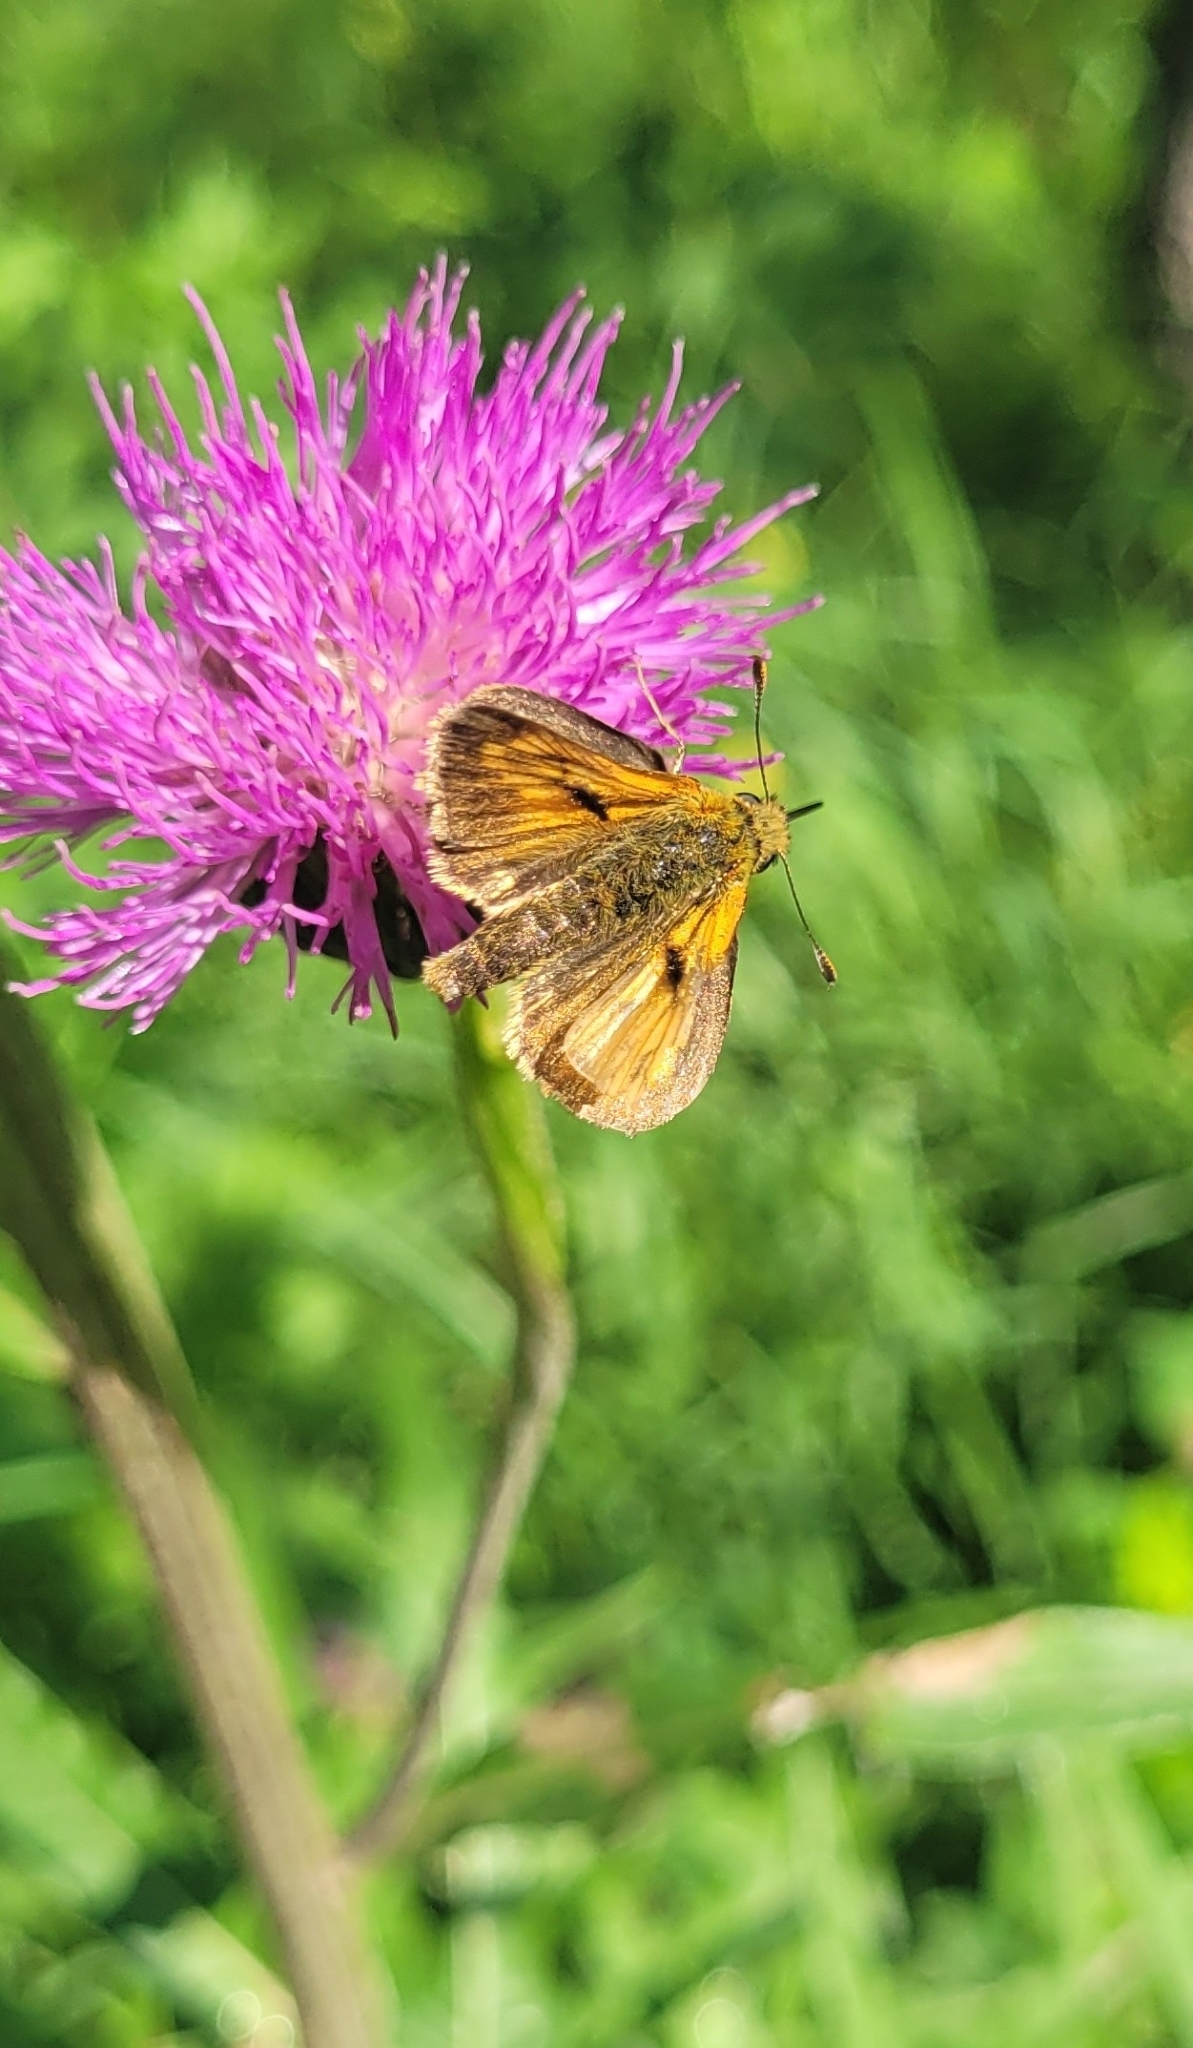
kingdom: Animalia
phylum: Arthropoda
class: Insecta
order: Lepidoptera
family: Hesperiidae
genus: Ochlodes
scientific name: Ochlodes venata
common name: Large skipper
